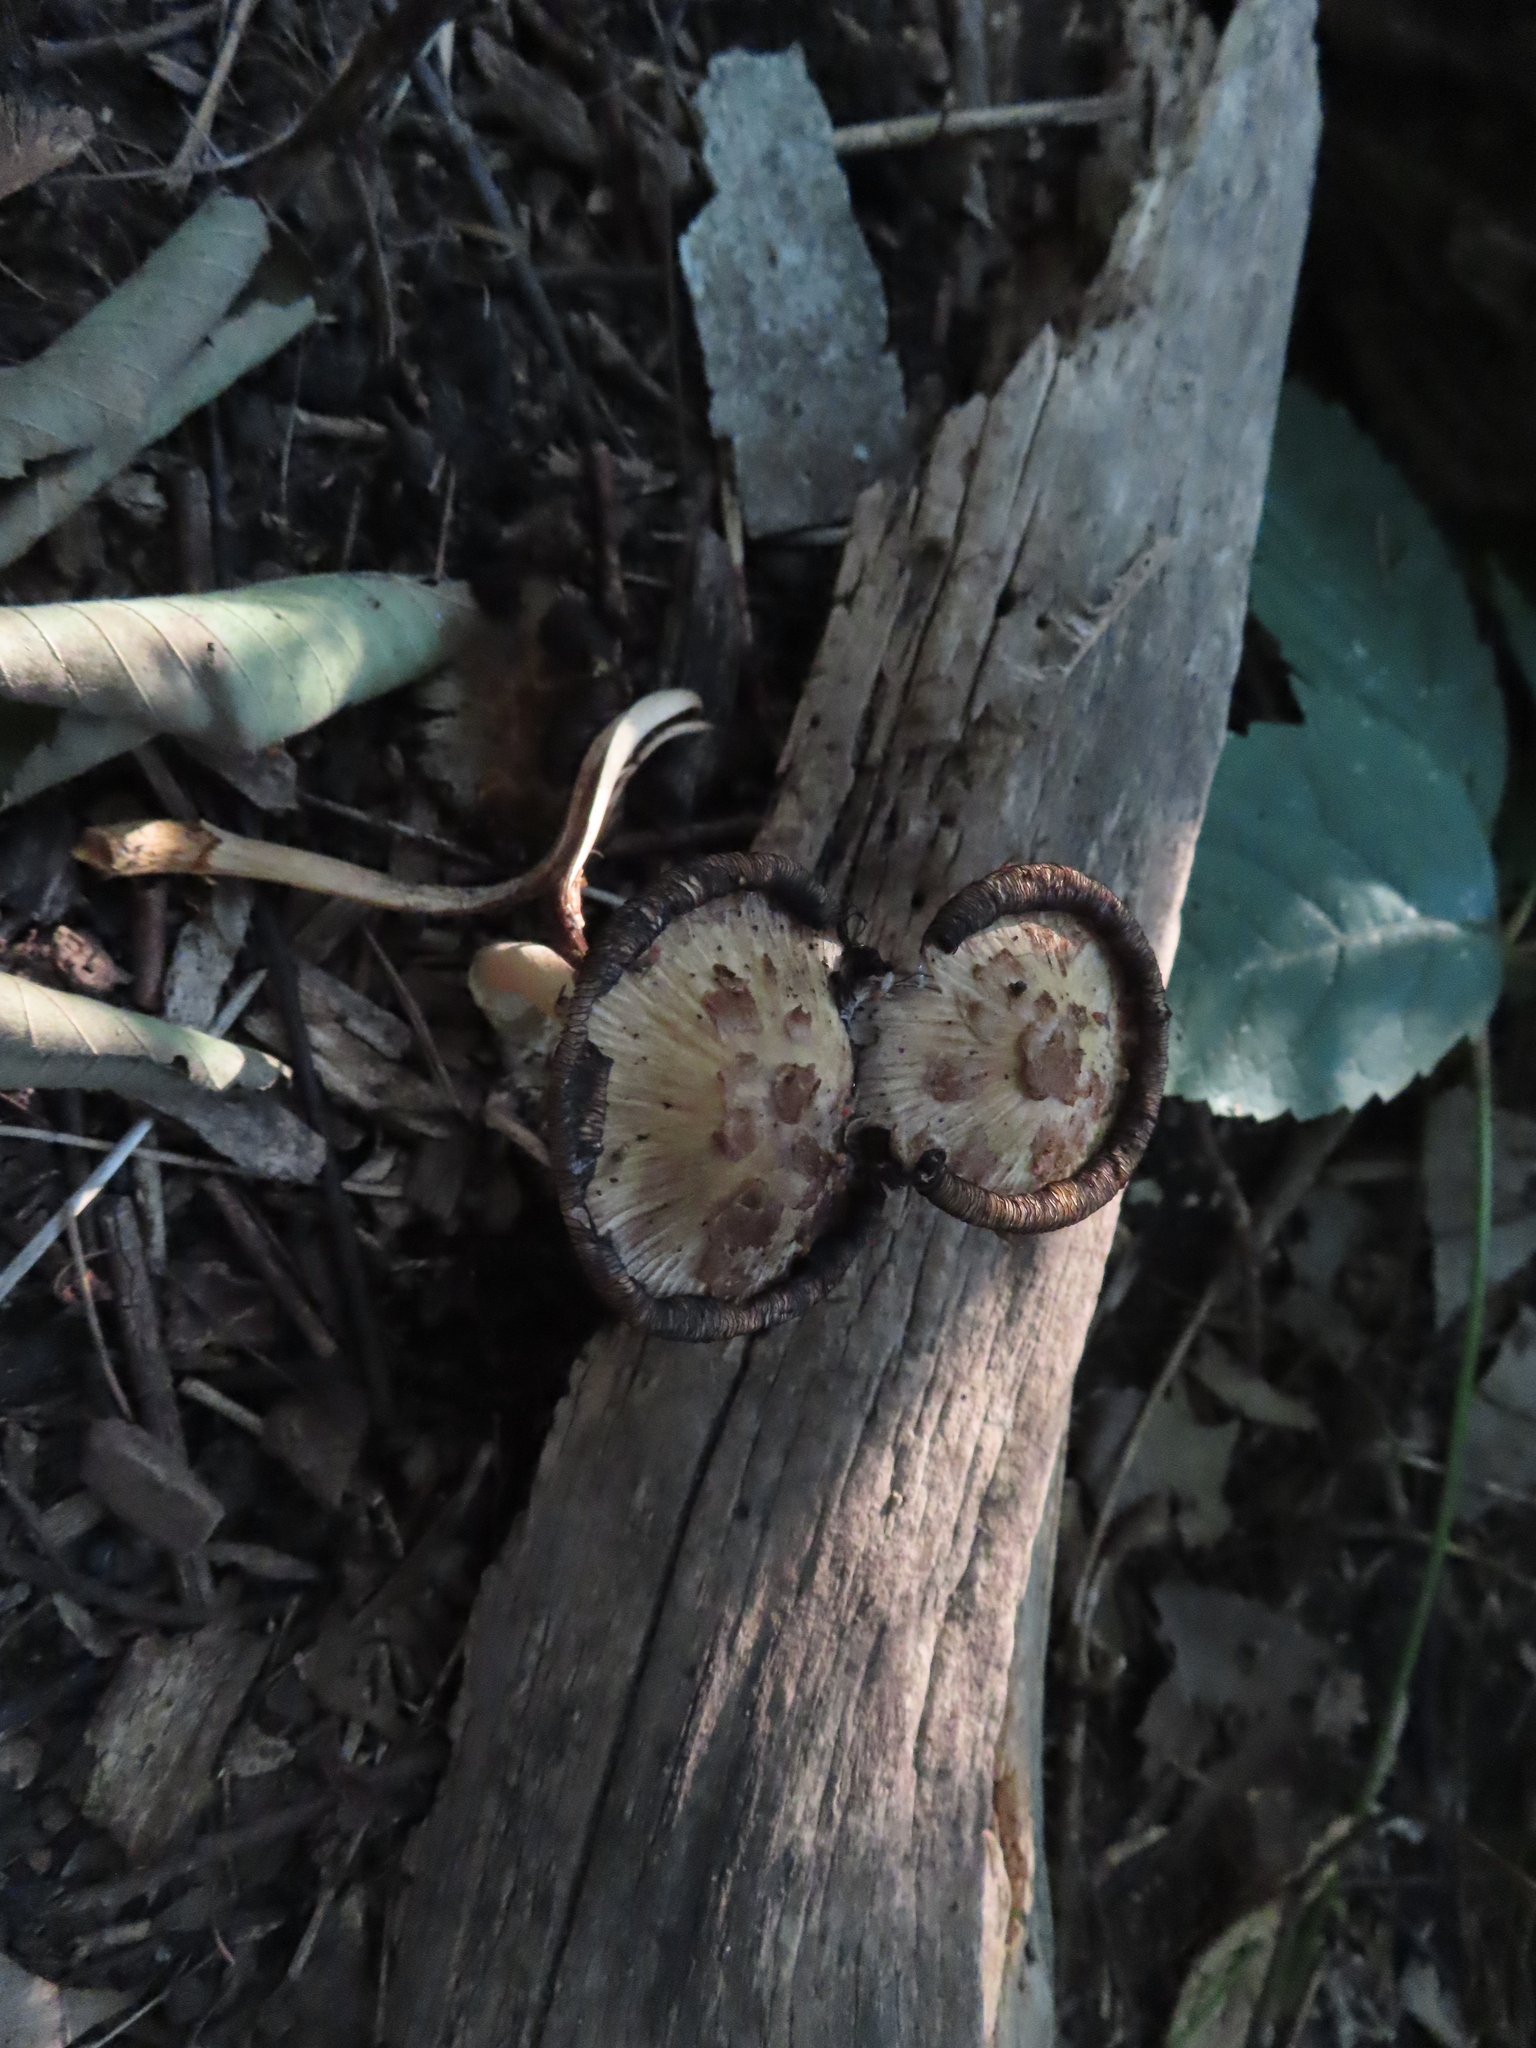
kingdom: Fungi
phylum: Basidiomycota
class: Agaricomycetes
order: Agaricales
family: Psathyrellaceae
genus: Coprinopsis
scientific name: Coprinopsis variegata
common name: Scaly ink cap
